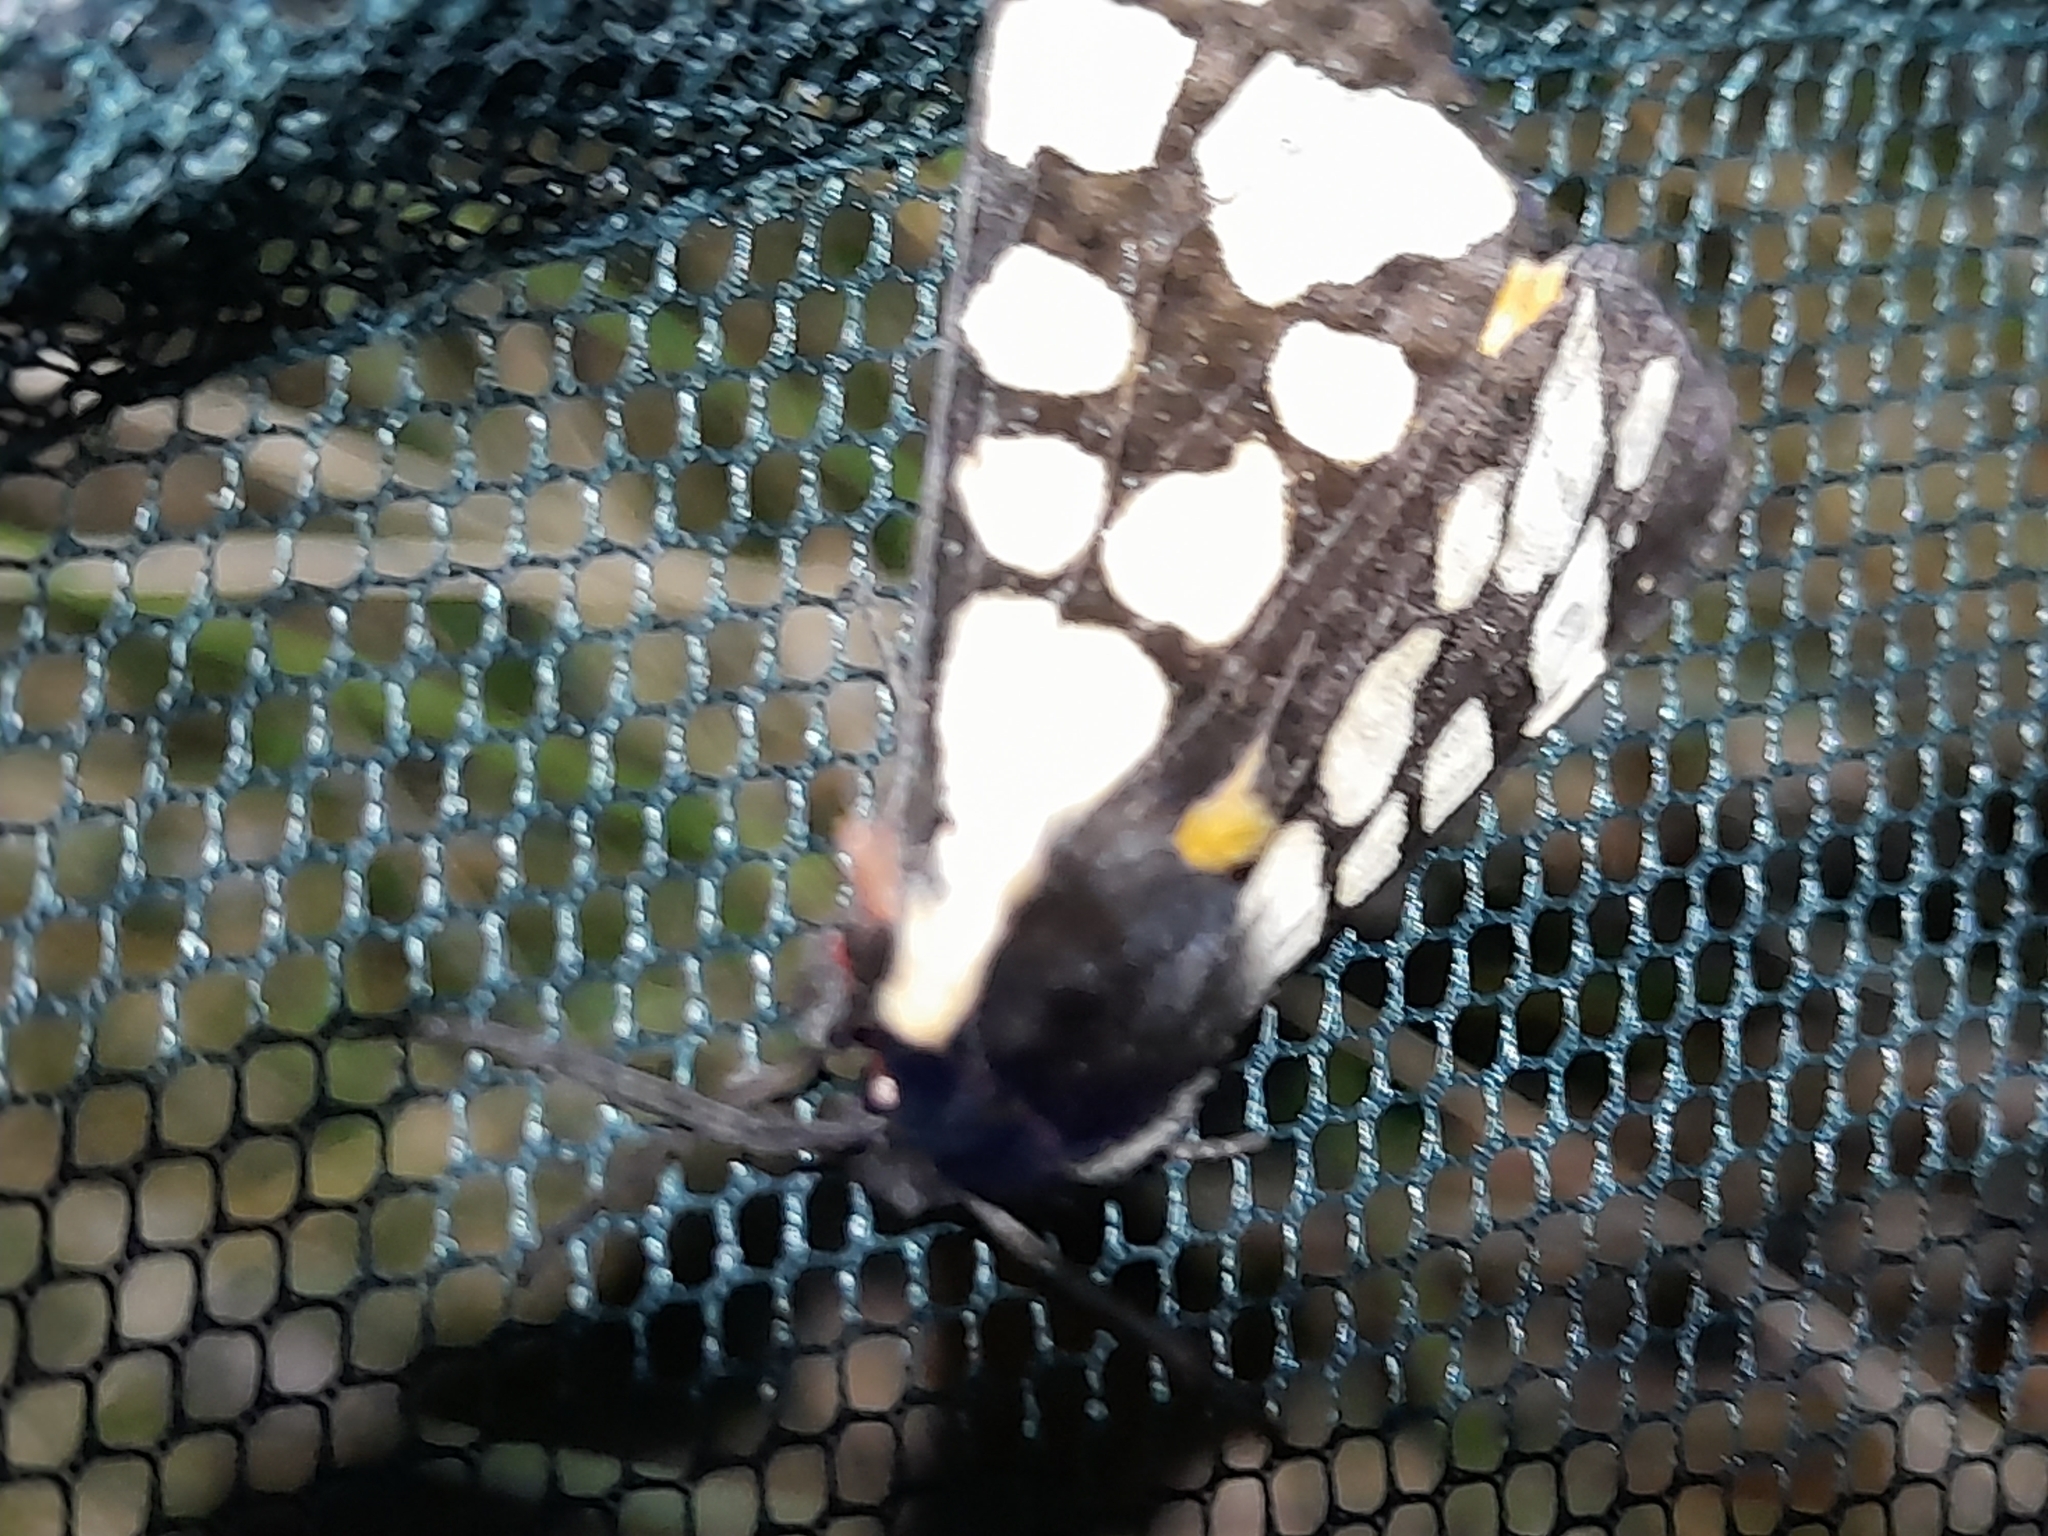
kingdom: Animalia
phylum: Arthropoda
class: Insecta
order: Lepidoptera
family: Erebidae
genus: Epicallia
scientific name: Epicallia villica
